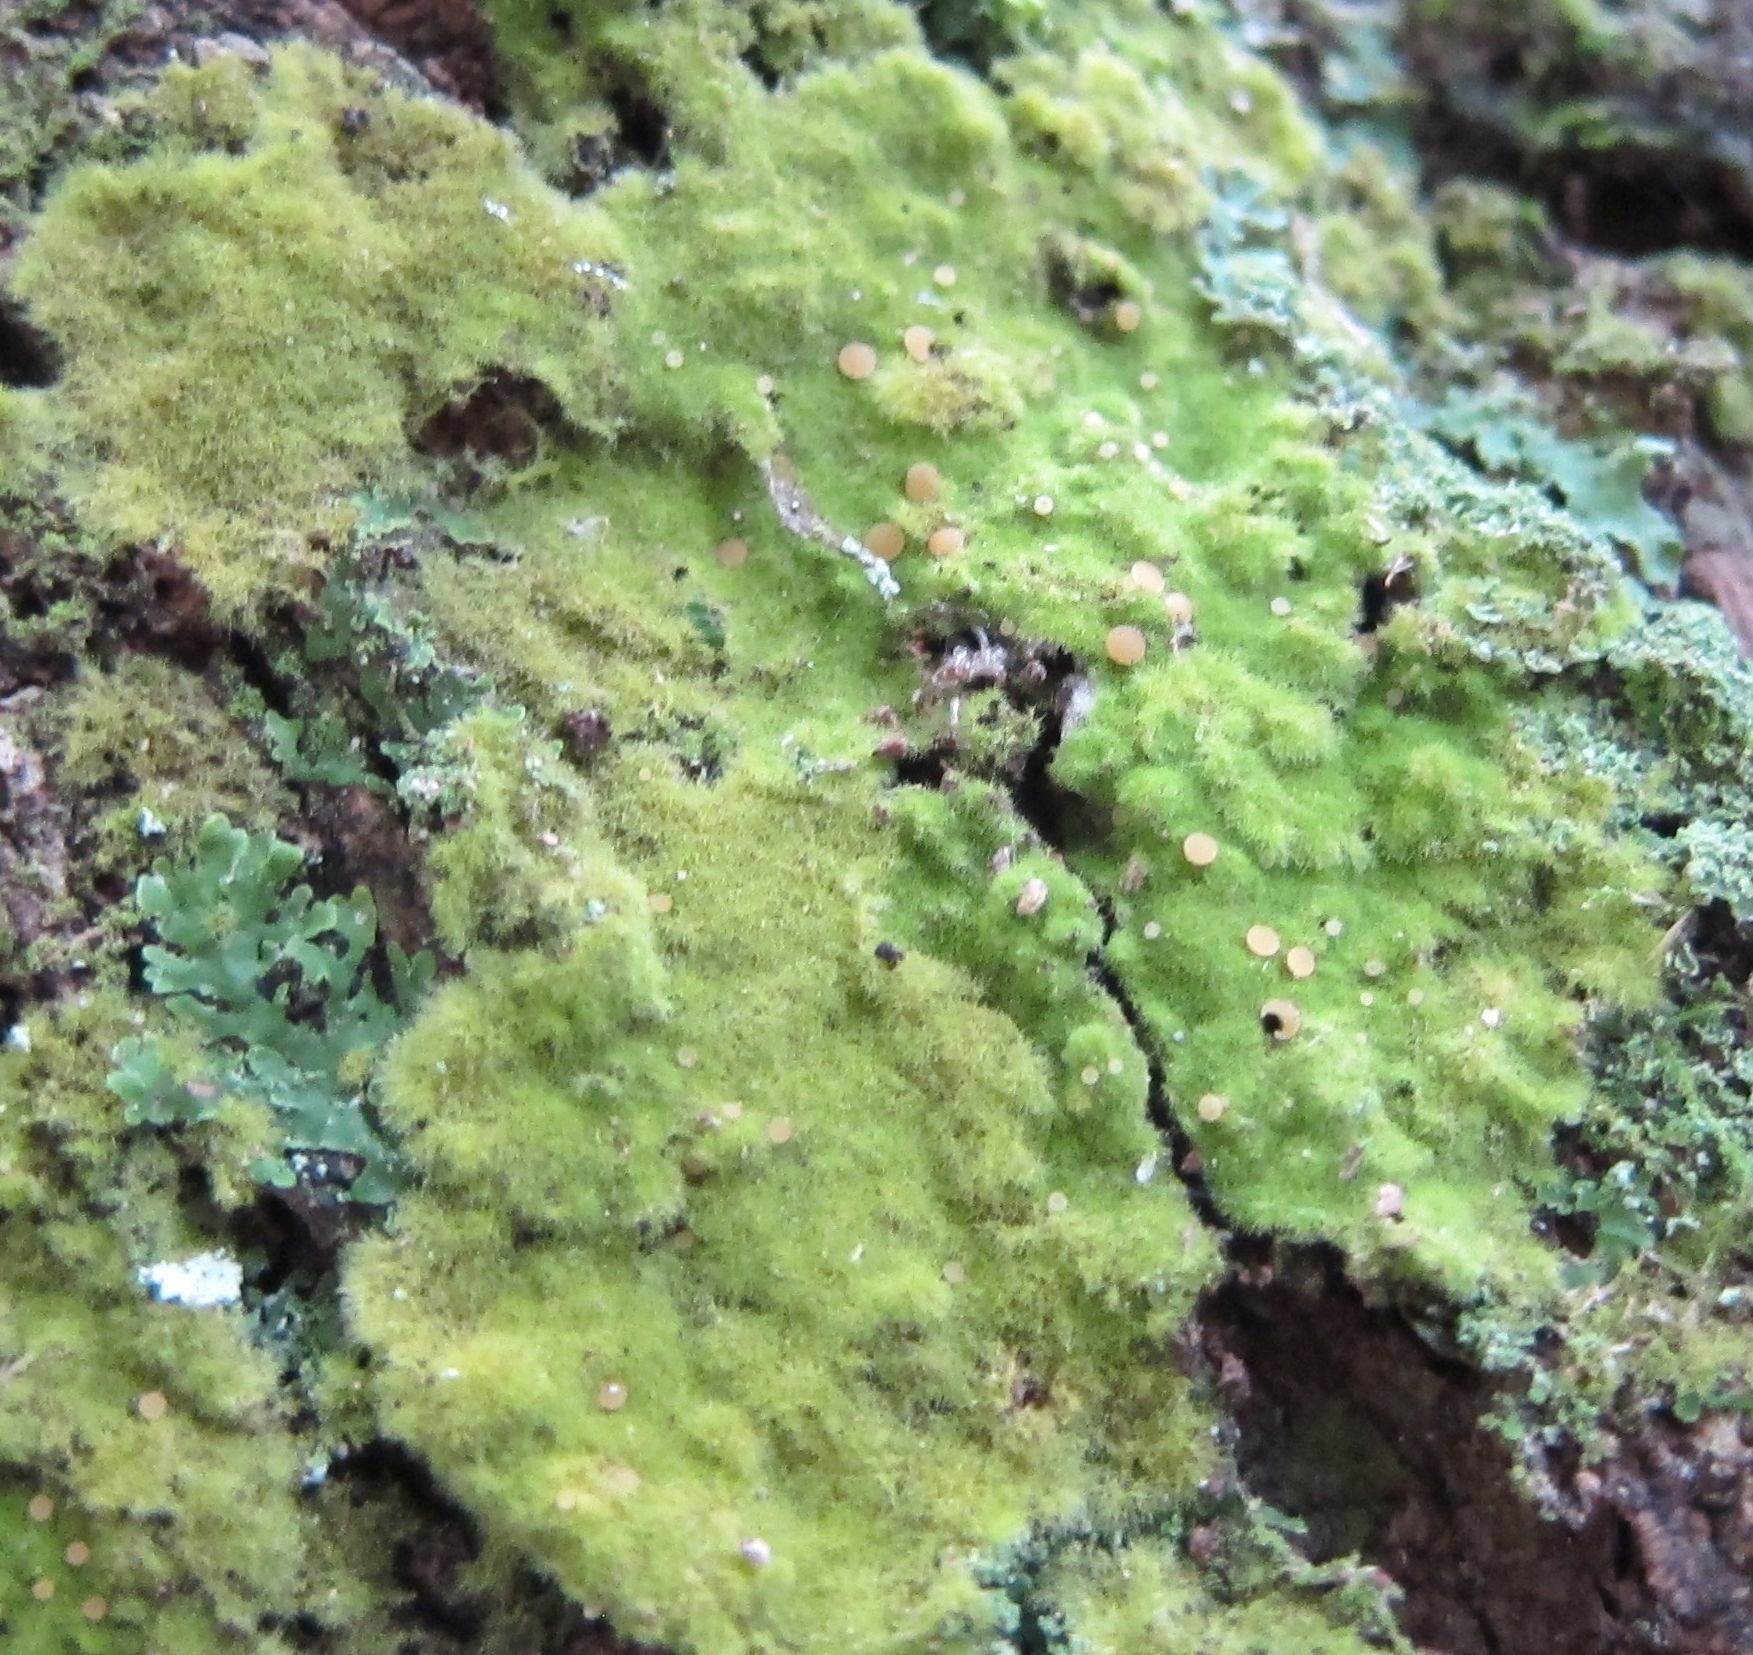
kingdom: Fungi
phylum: Ascomycota
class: Lecanoromycetes
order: Ostropales
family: Coenogoniaceae
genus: Coenogonium
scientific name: Coenogonium implexum
